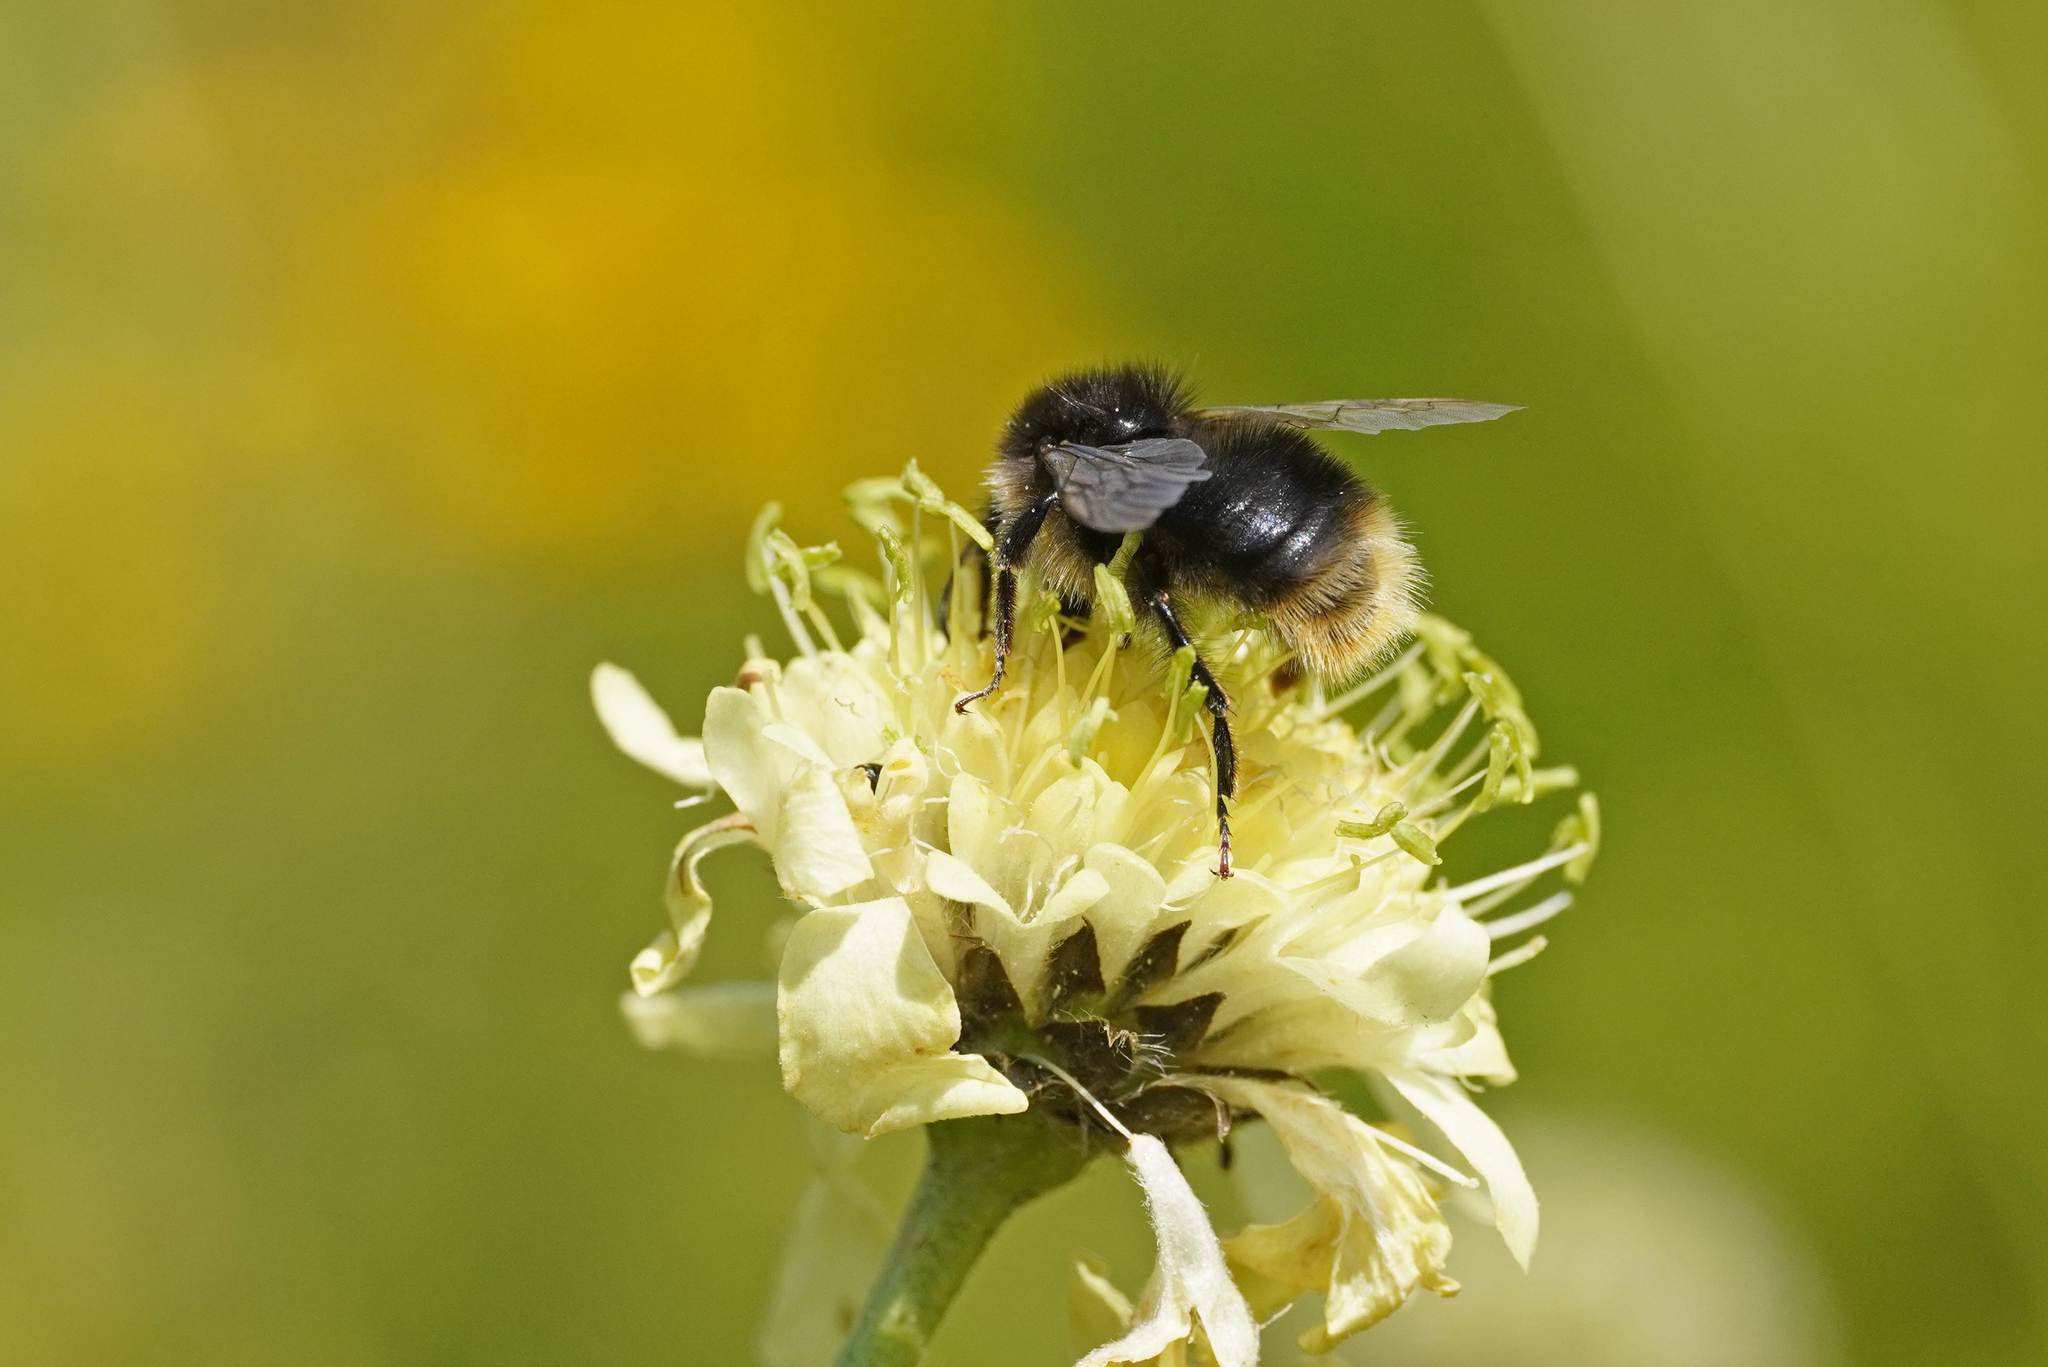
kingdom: Animalia
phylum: Arthropoda
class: Insecta
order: Hymenoptera
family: Apidae
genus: Bombus
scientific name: Bombus soroeensis
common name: Broken-belted humble-bee
